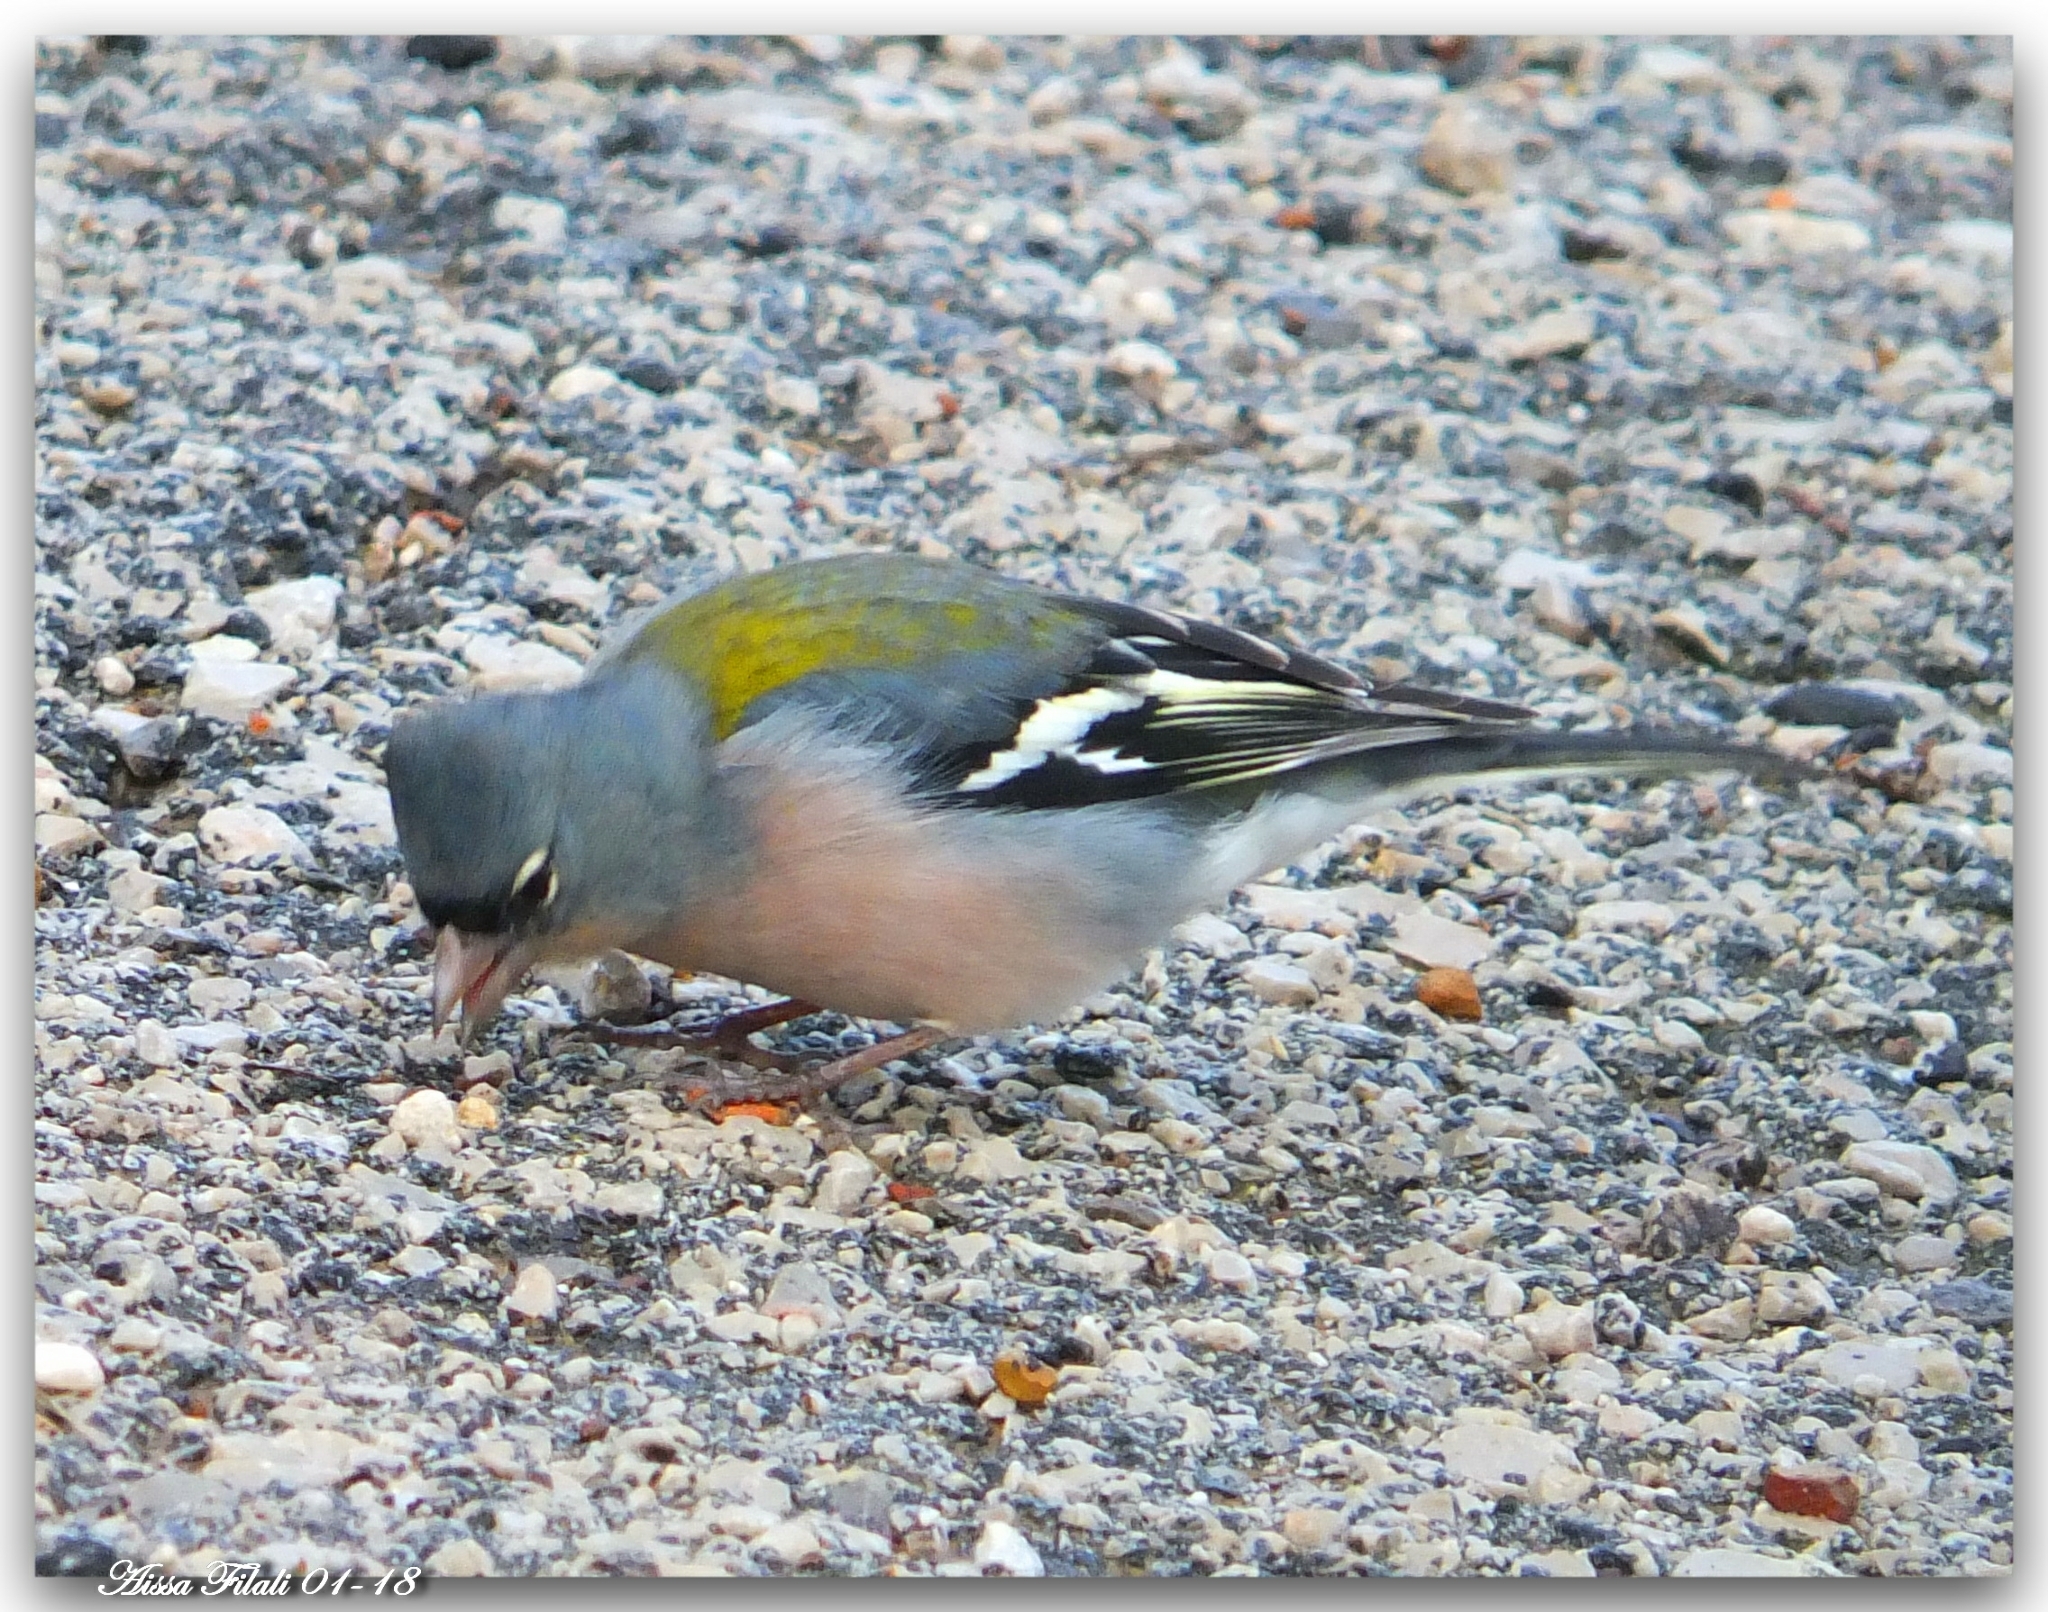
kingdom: Animalia
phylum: Chordata
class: Aves
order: Passeriformes
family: Fringillidae
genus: Fringilla
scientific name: Fringilla spodiogenys
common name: African chaffinch
